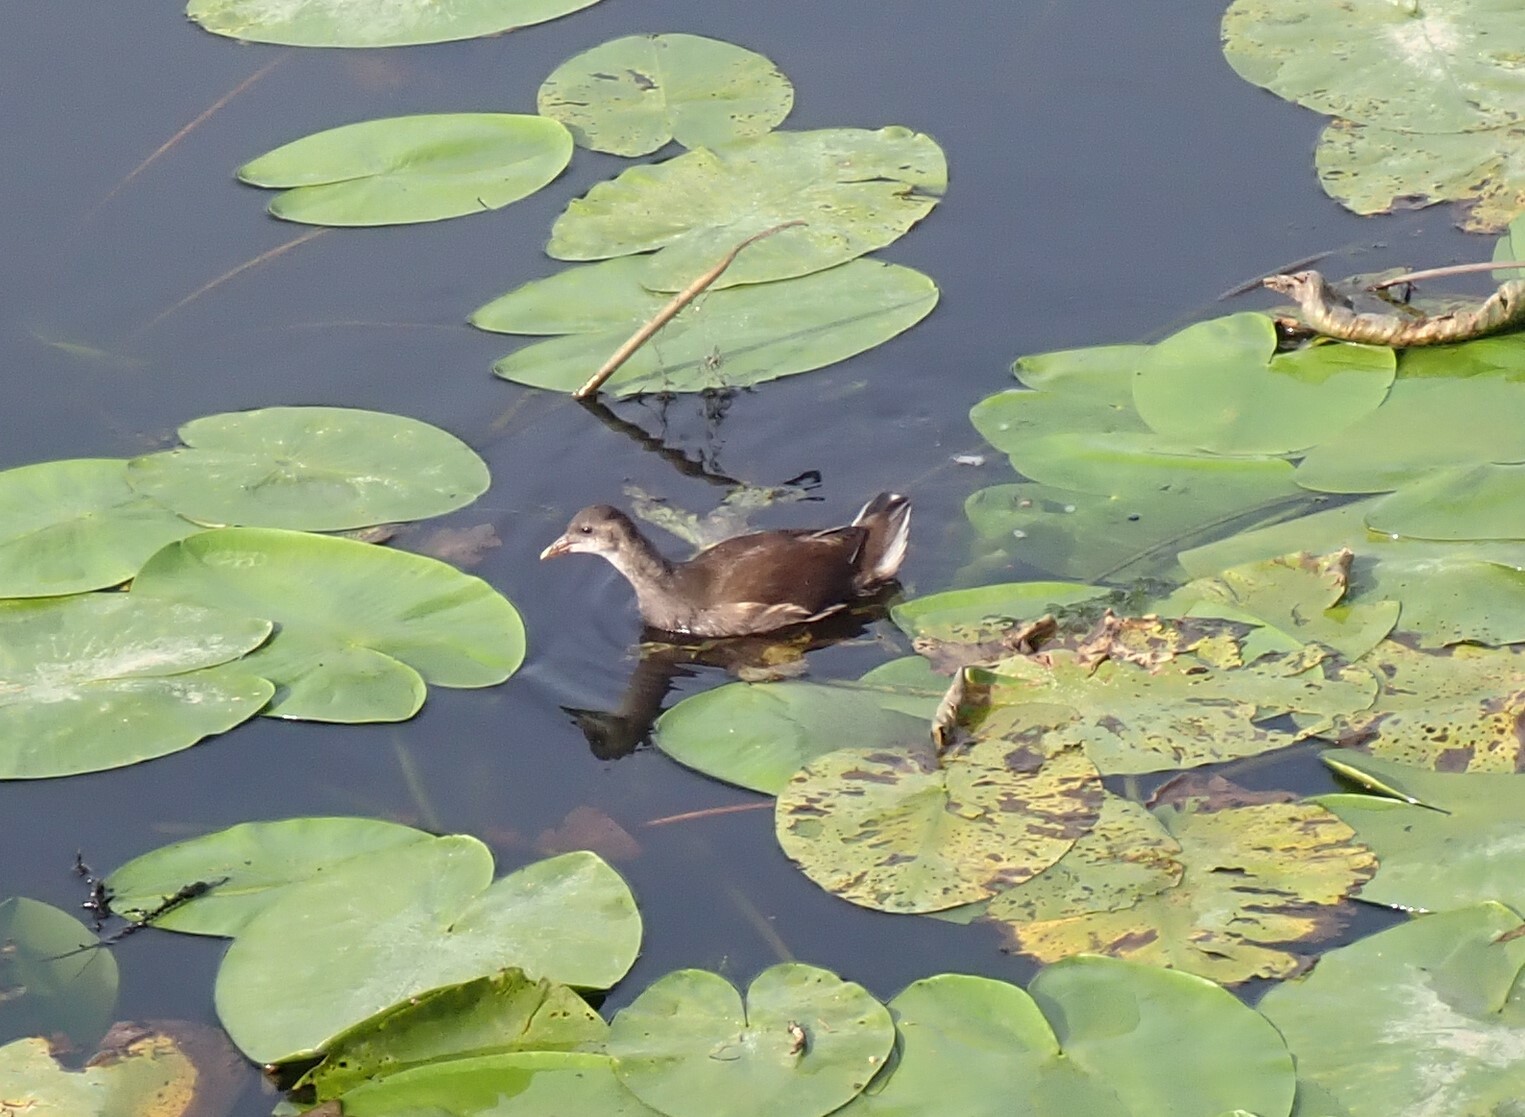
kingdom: Animalia
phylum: Chordata
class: Aves
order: Gruiformes
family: Rallidae
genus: Gallinula
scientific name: Gallinula chloropus
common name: Common moorhen
